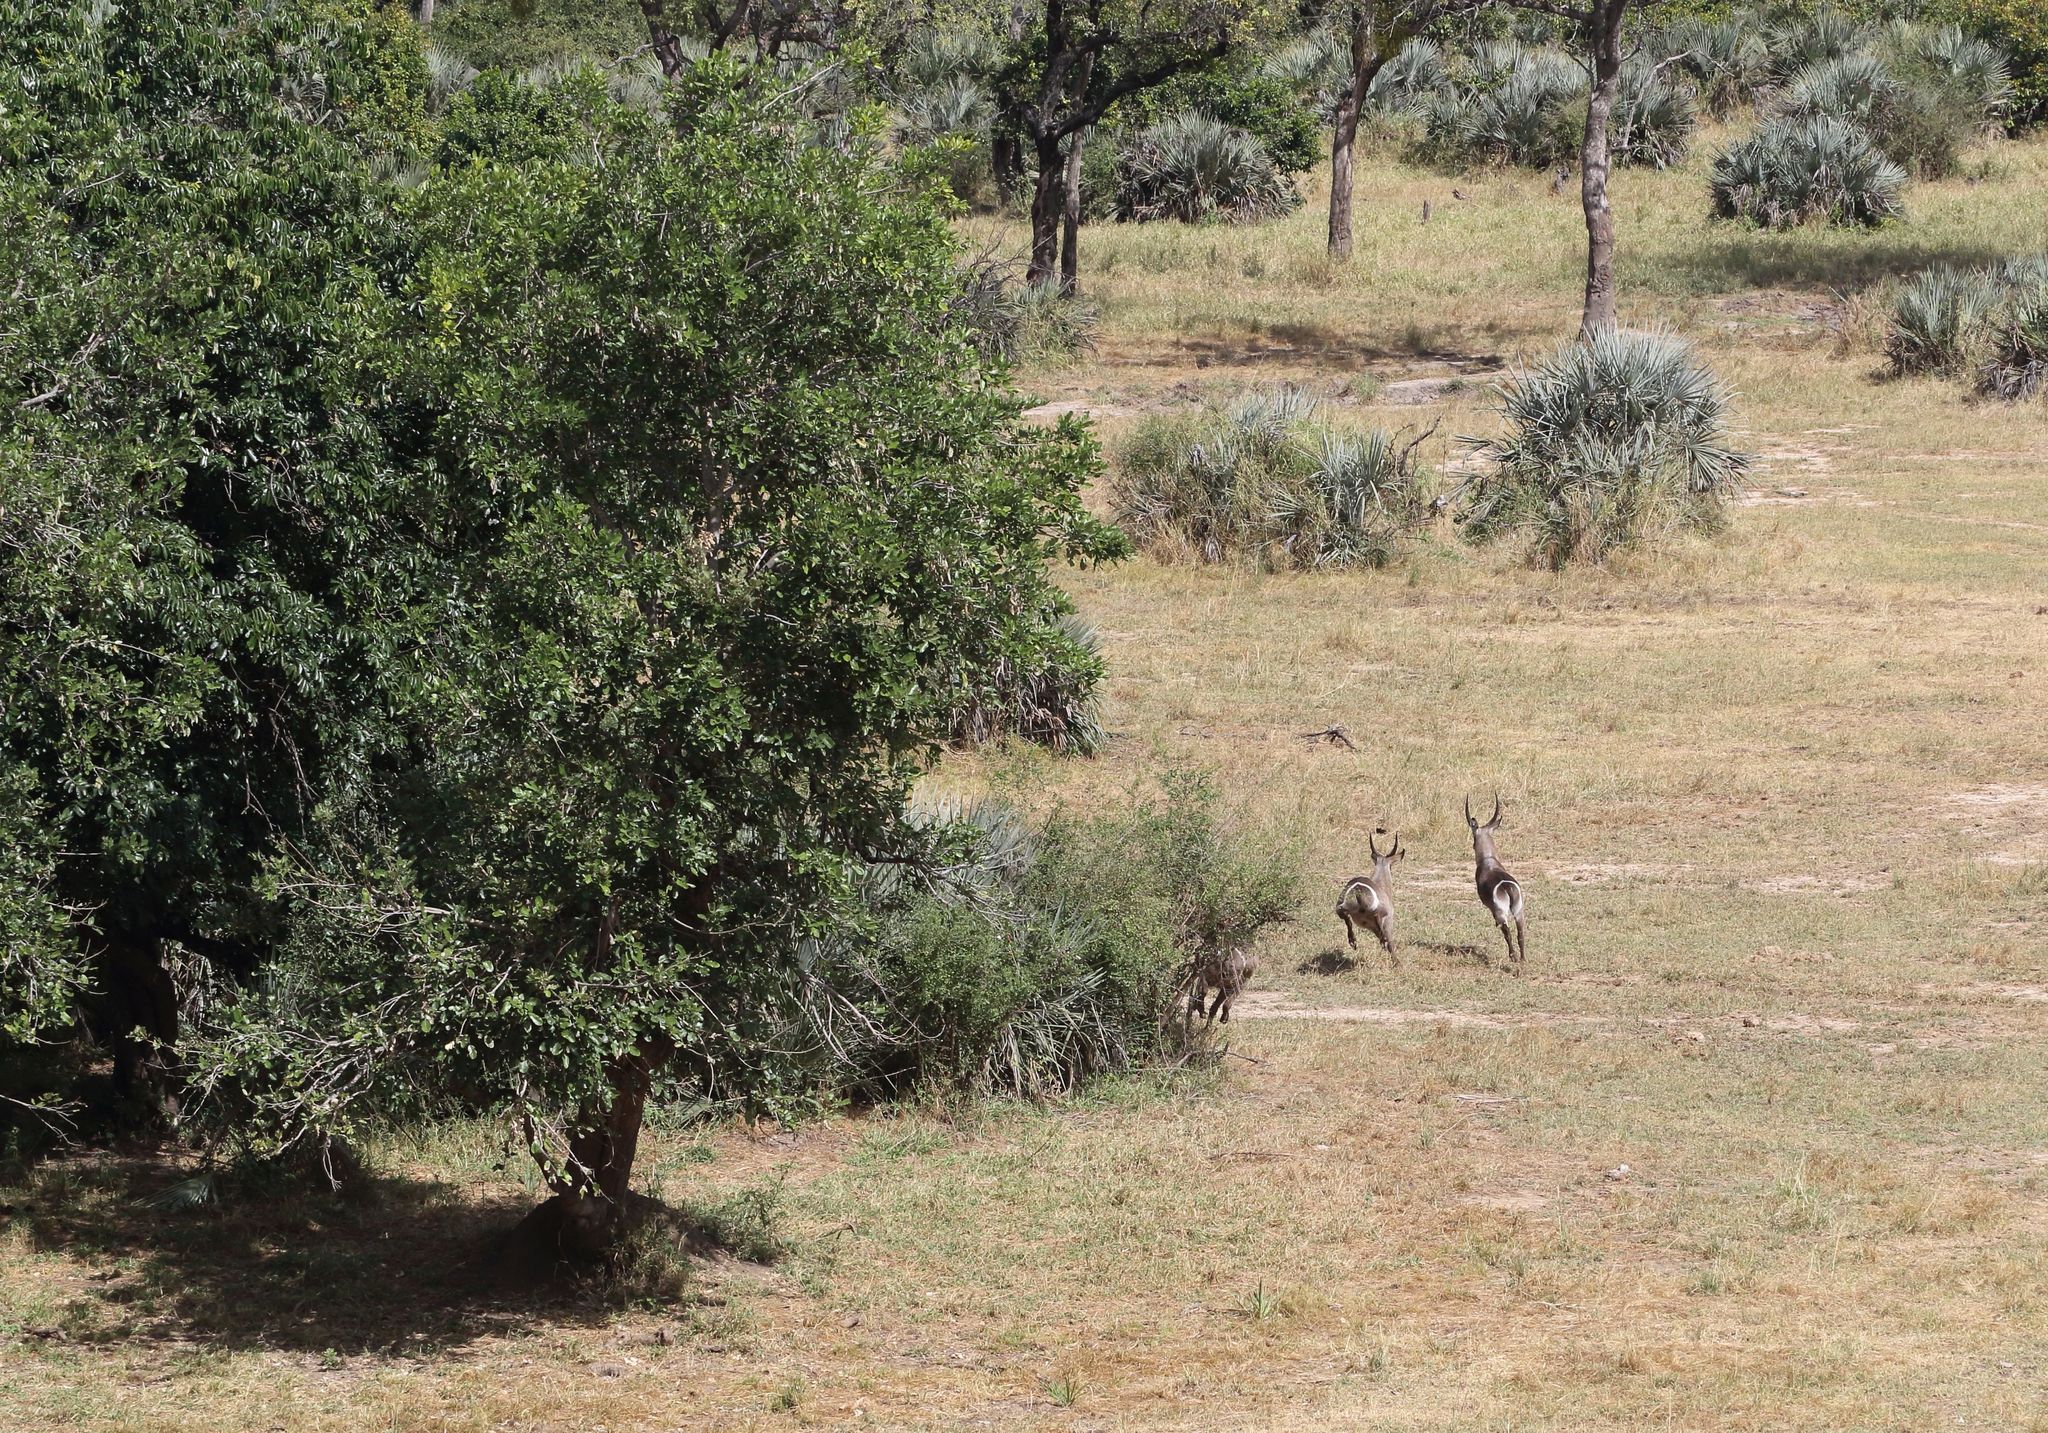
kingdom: Animalia
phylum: Chordata
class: Mammalia
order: Artiodactyla
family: Bovidae
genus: Kobus
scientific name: Kobus ellipsiprymnus
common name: Waterbuck
